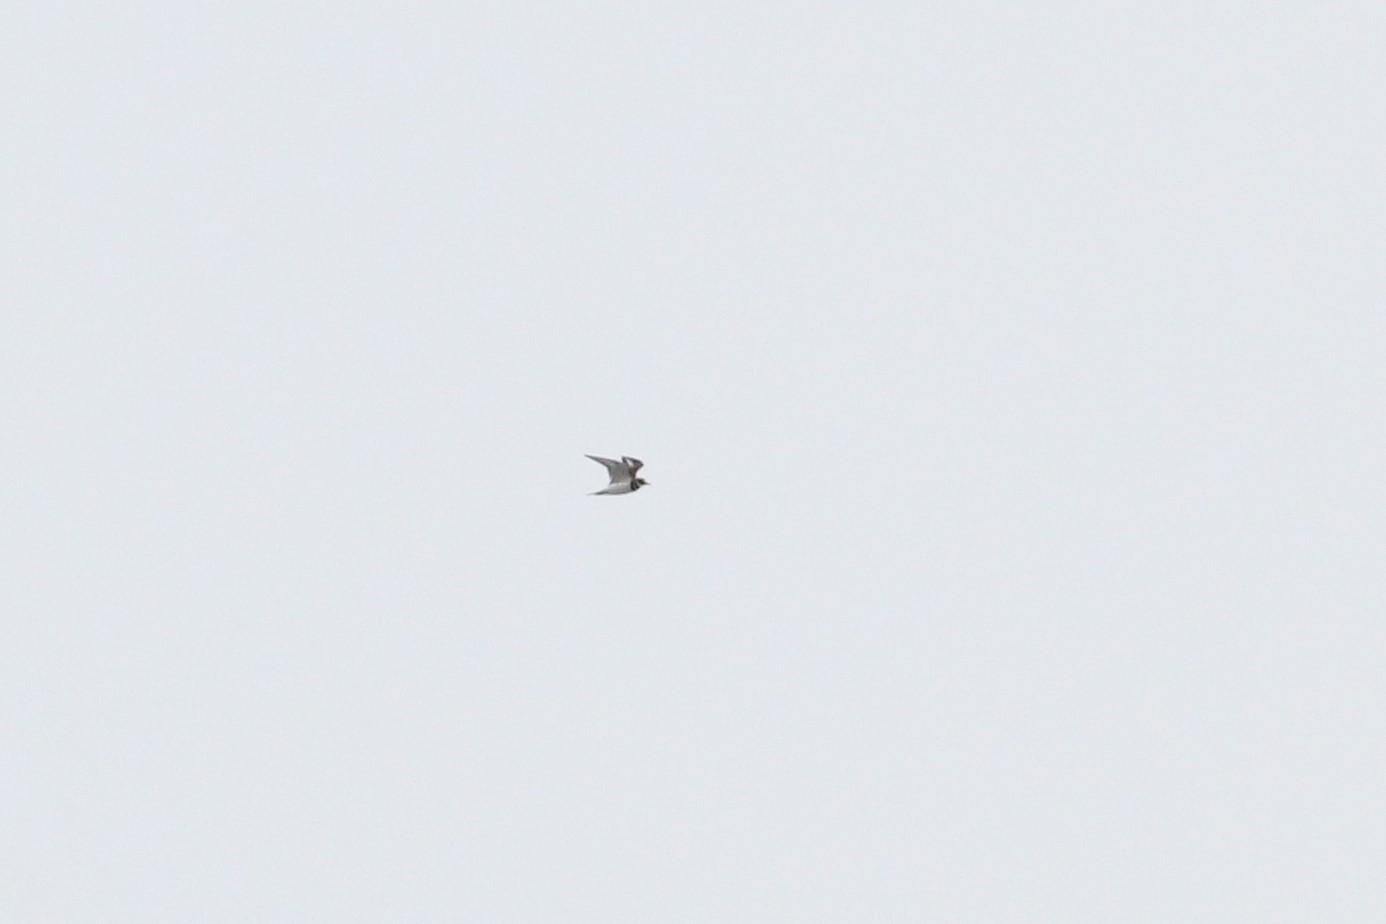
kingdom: Animalia
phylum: Chordata
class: Aves
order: Charadriiformes
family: Charadriidae
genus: Charadrius
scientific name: Charadrius vociferus
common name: Killdeer
